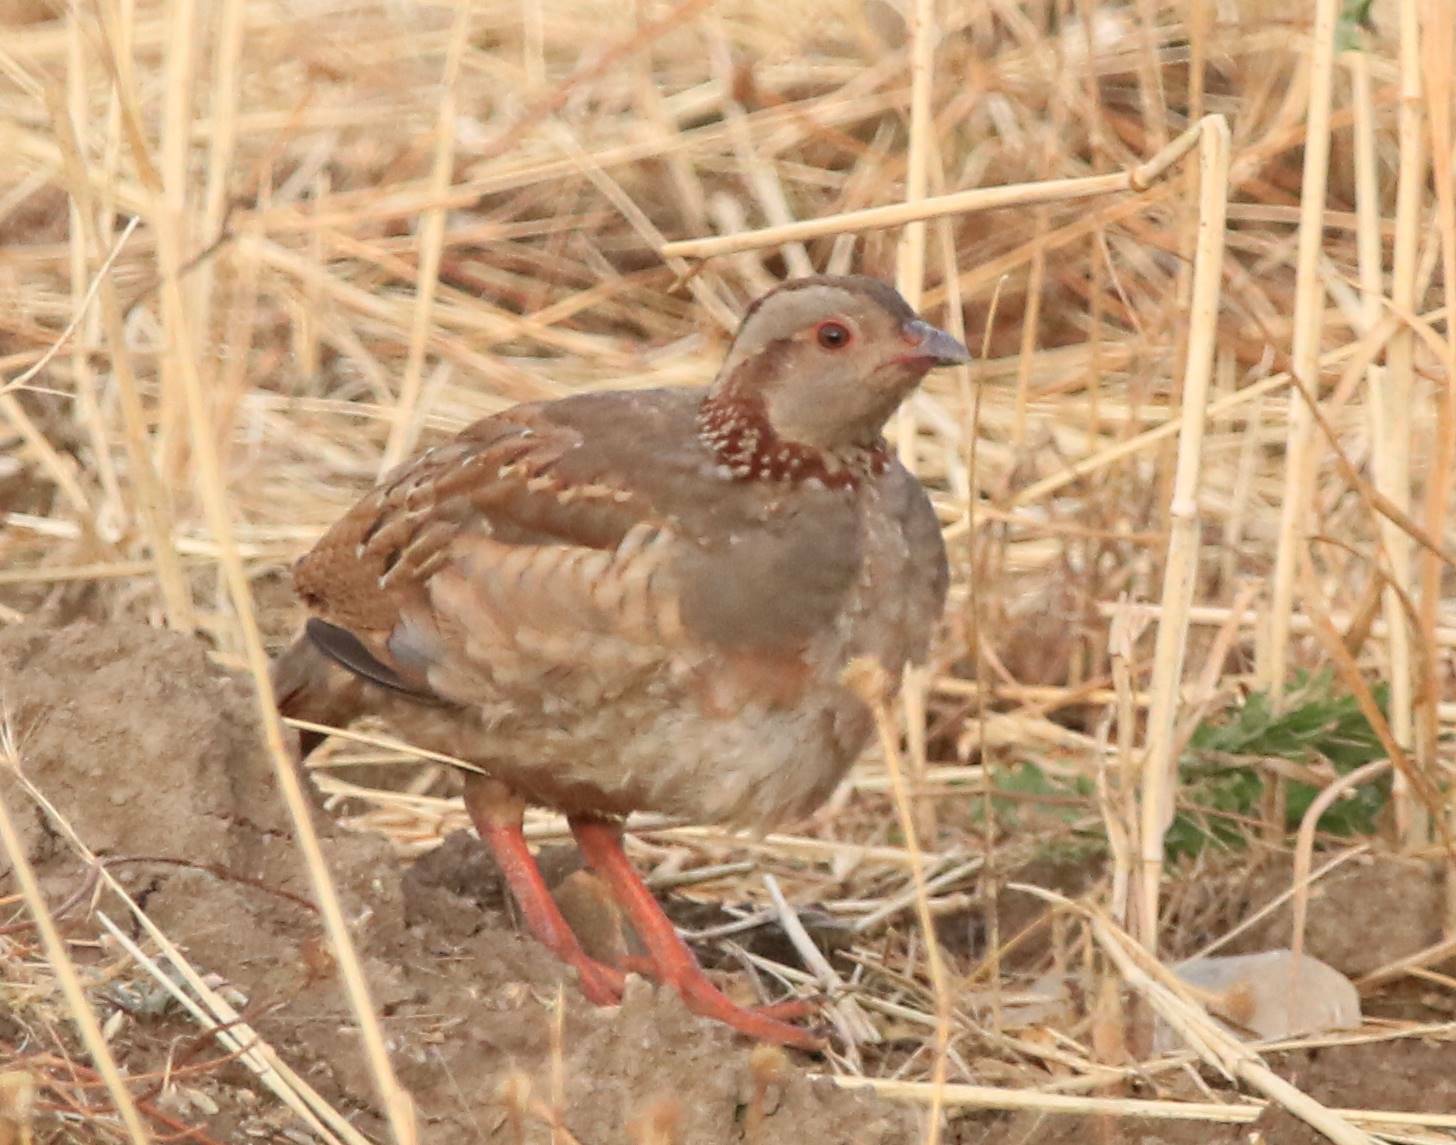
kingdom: Animalia
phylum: Chordata
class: Aves
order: Galliformes
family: Phasianidae
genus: Alectoris
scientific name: Alectoris barbara
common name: Barbary partridge
